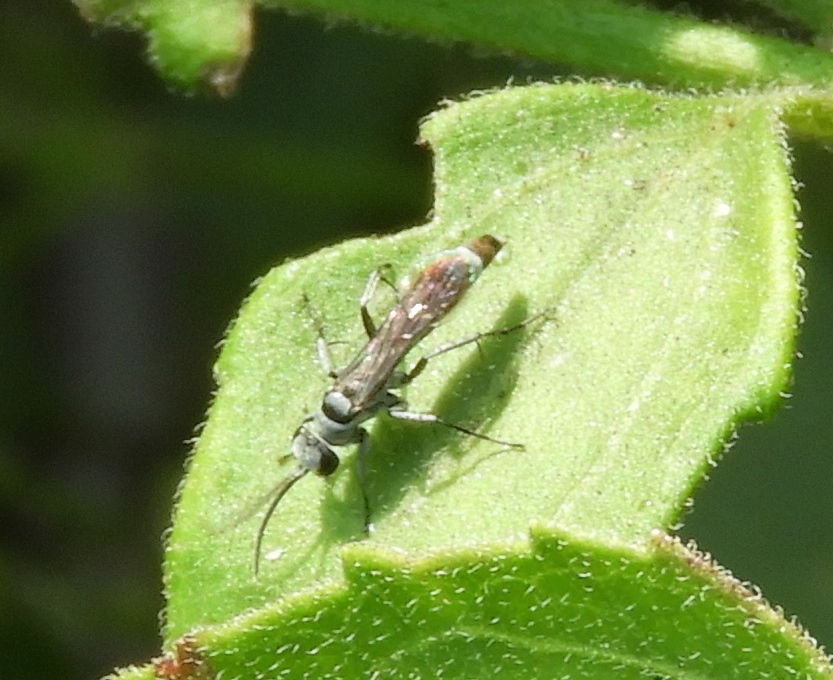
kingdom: Animalia
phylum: Arthropoda
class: Insecta
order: Hymenoptera
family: Pompilidae
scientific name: Pompilidae
